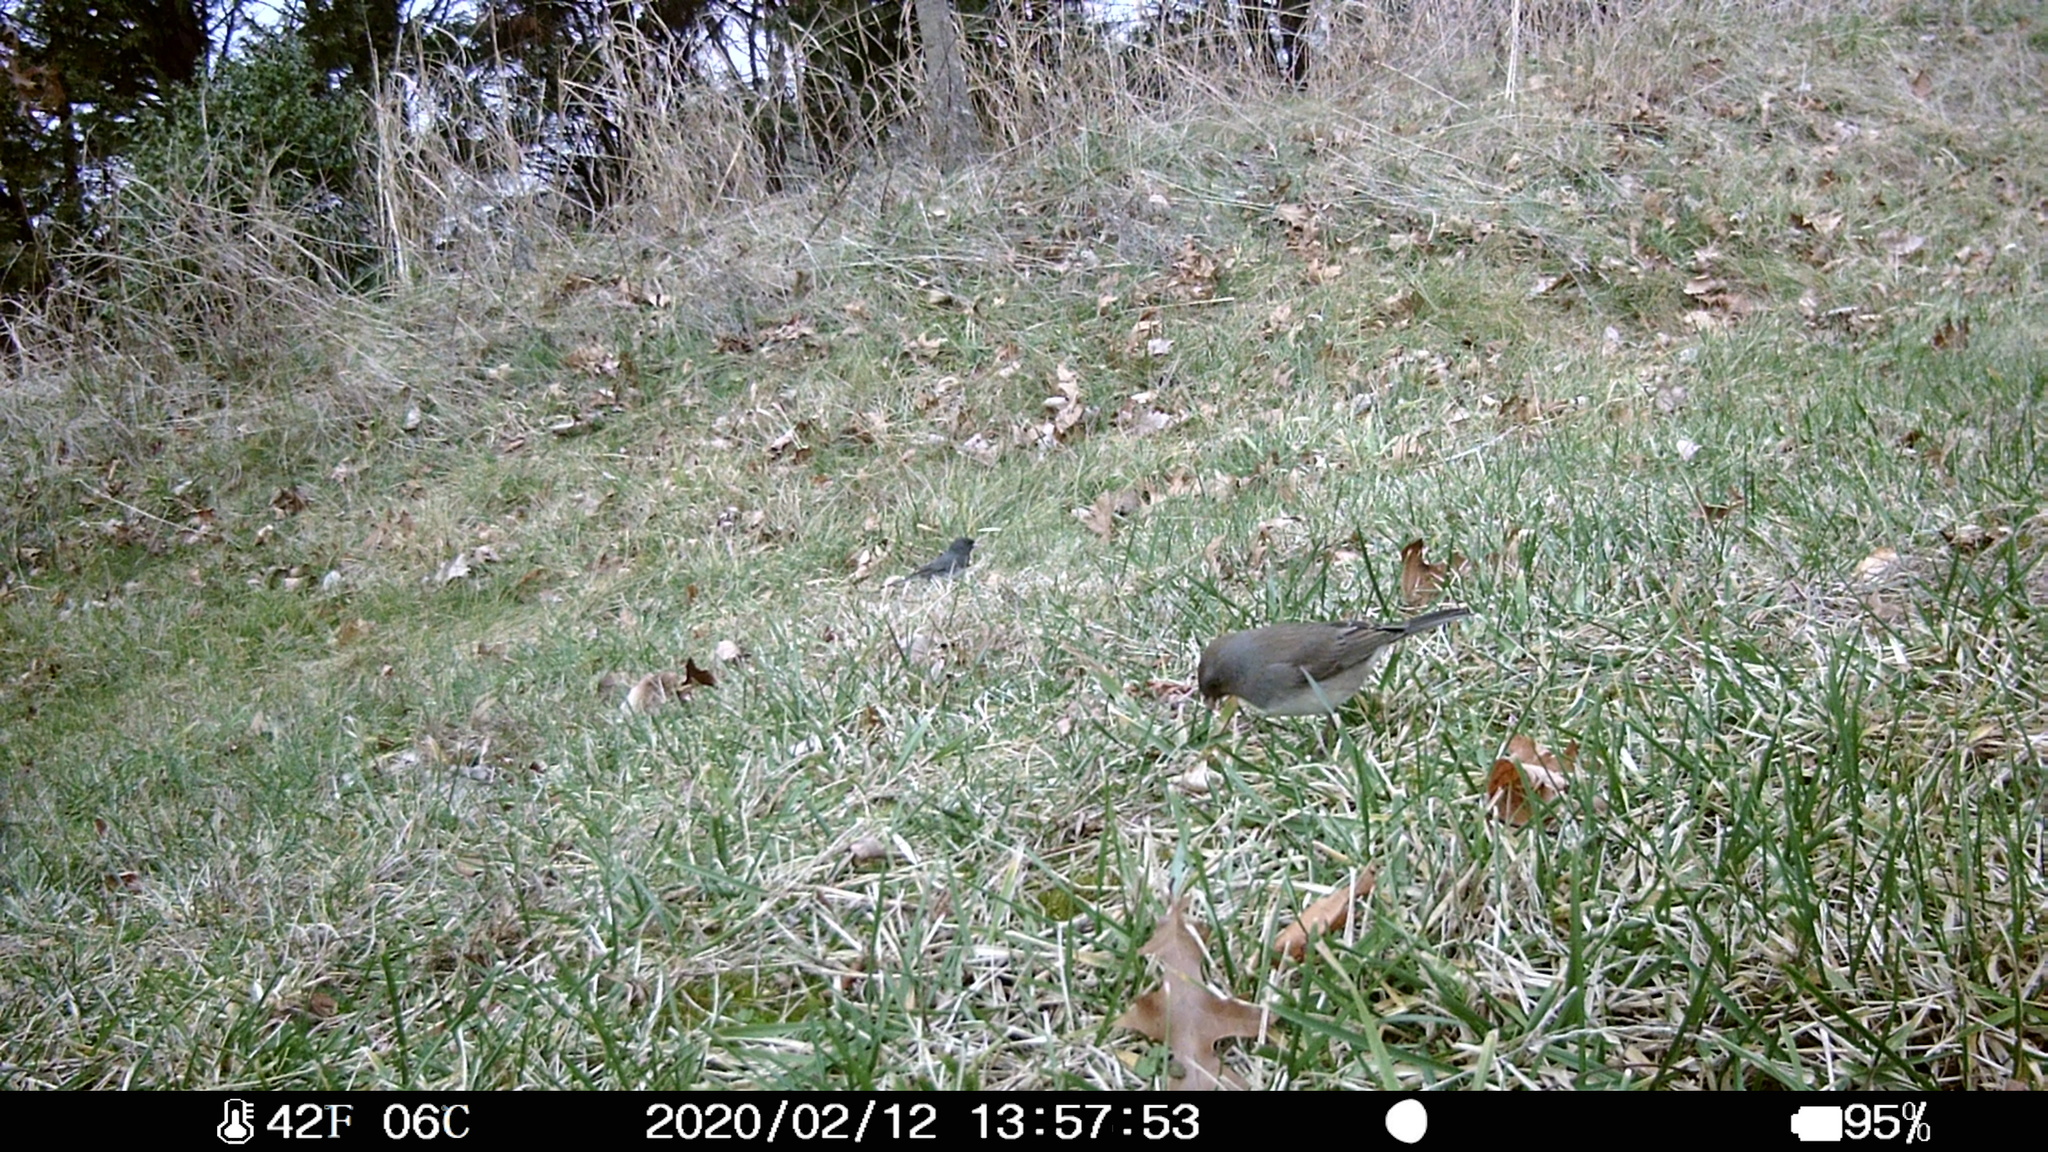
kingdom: Animalia
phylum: Chordata
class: Aves
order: Passeriformes
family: Passerellidae
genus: Junco
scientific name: Junco hyemalis
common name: Dark-eyed junco
